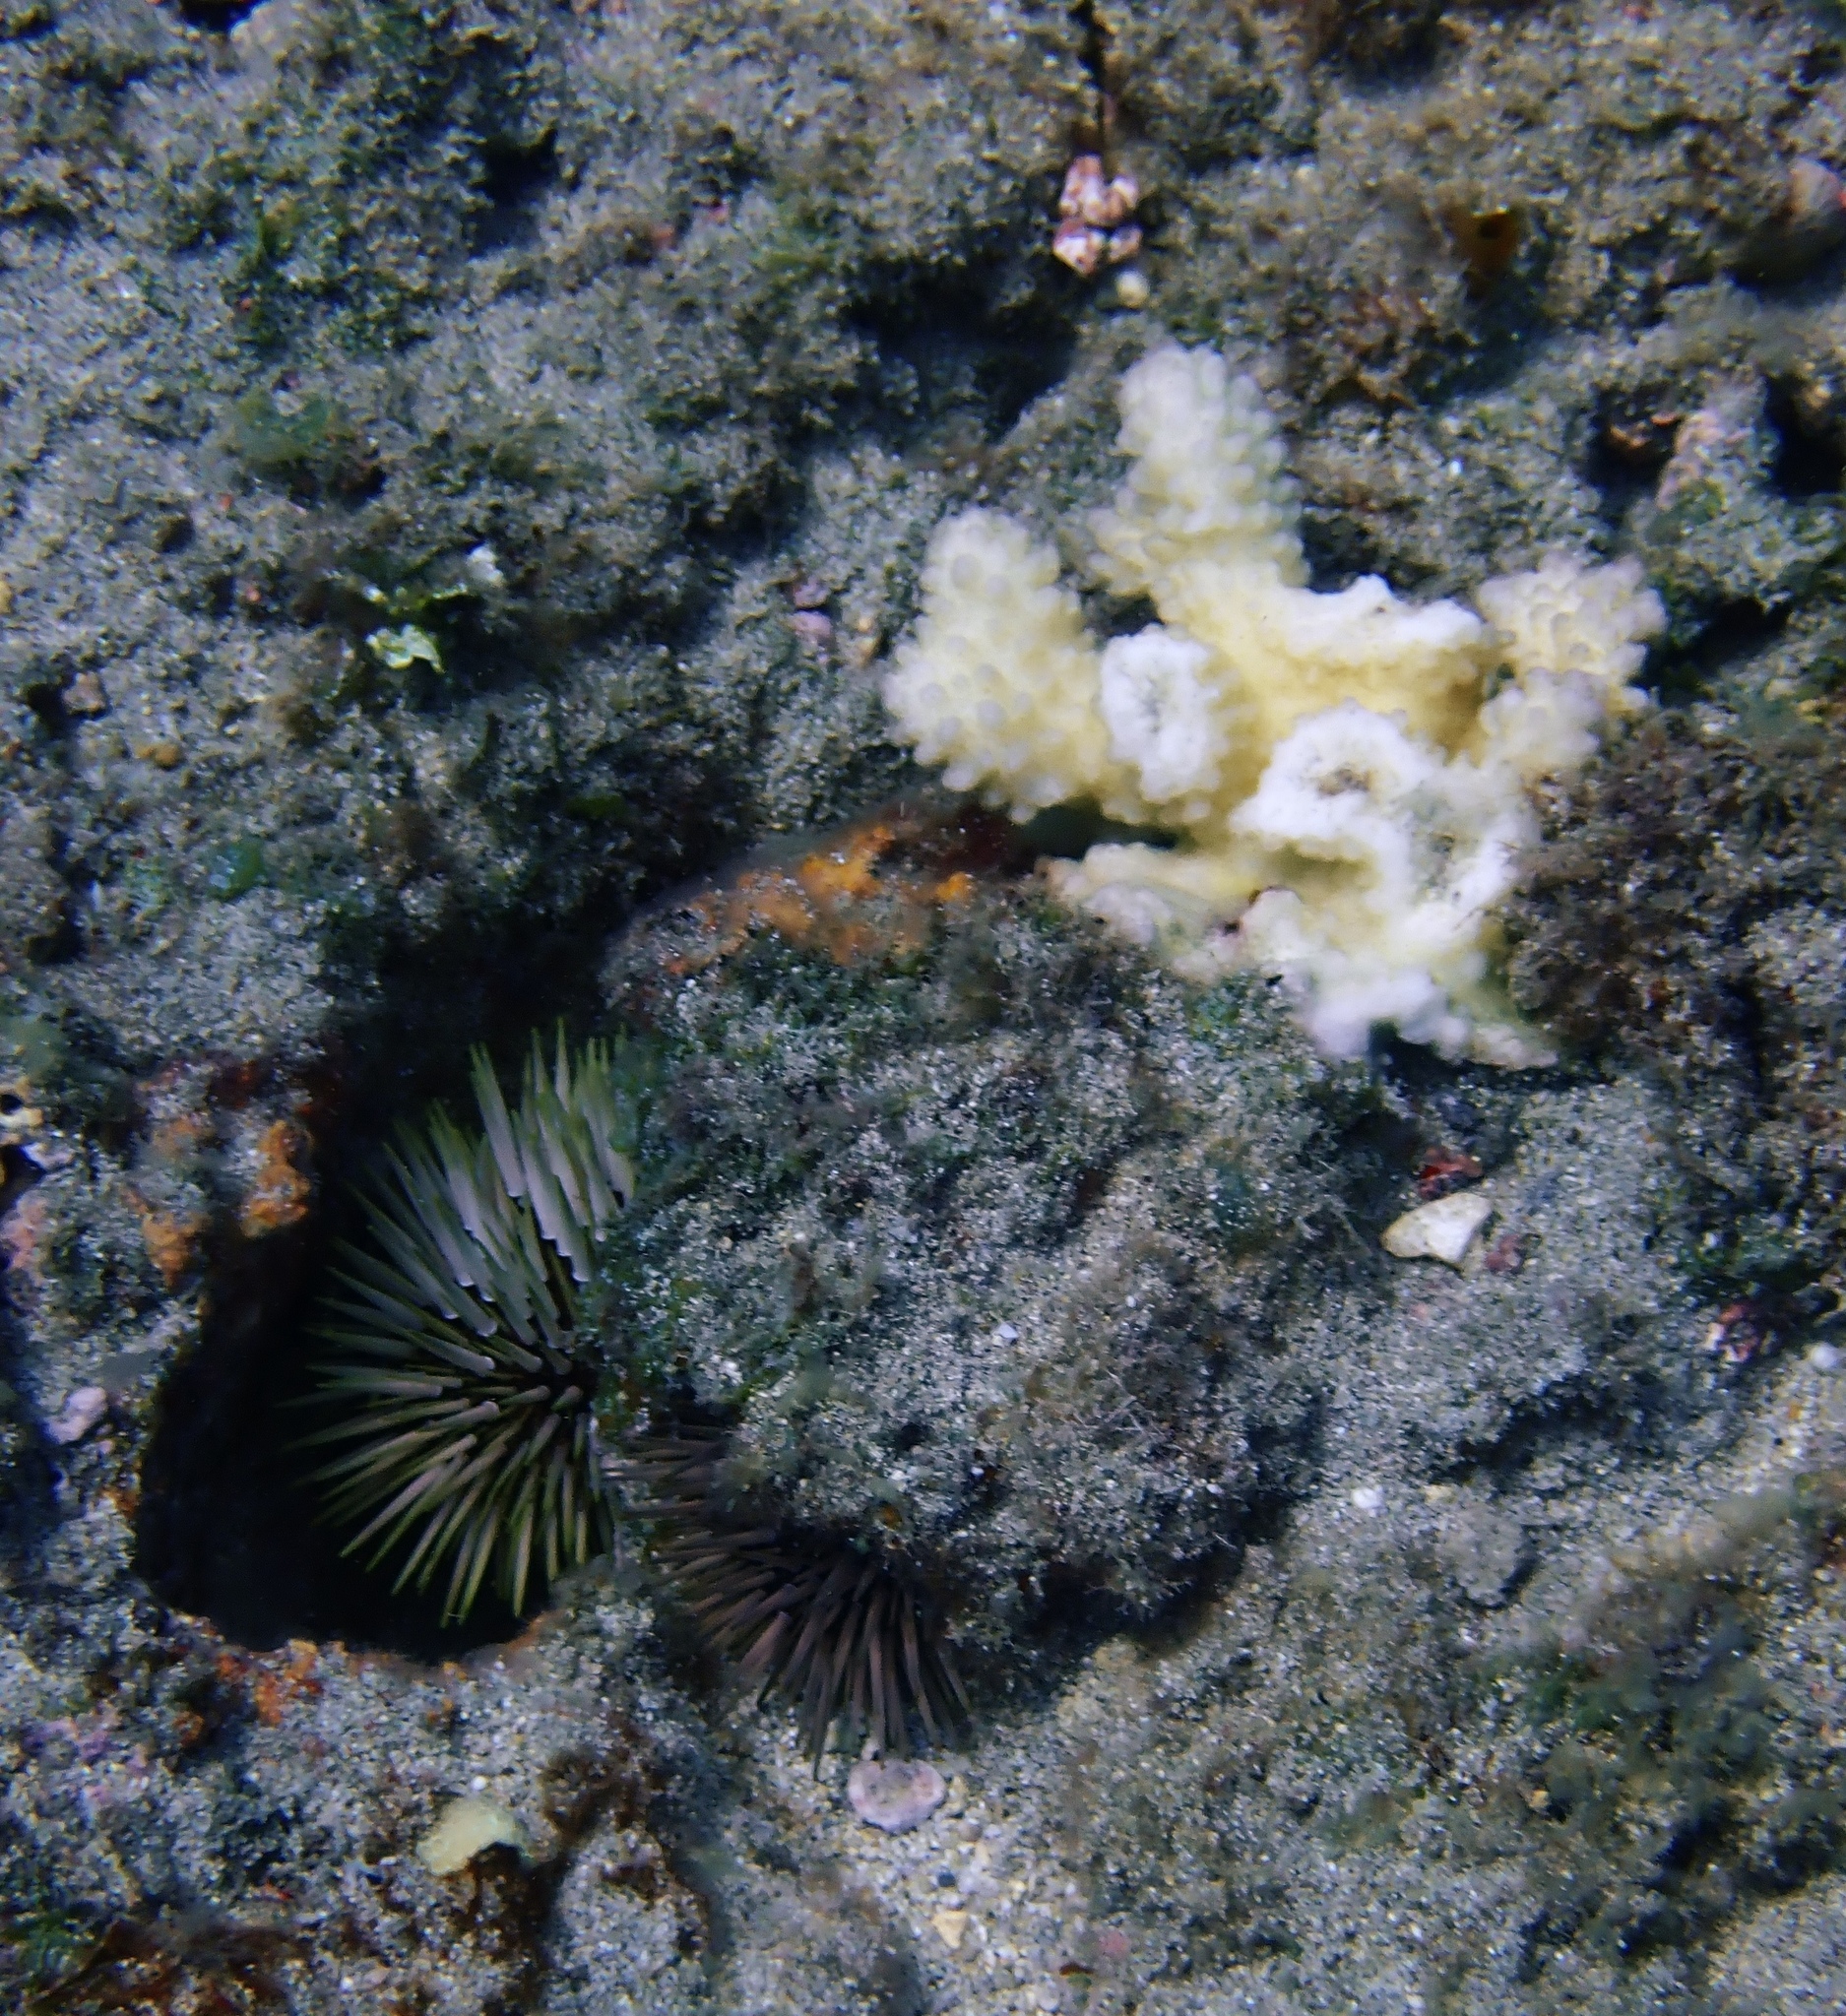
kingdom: Animalia
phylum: Echinodermata
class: Echinoidea
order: Camarodonta
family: Echinometridae
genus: Echinometra
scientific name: Echinometra mathaei
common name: Rock-boring urchin
